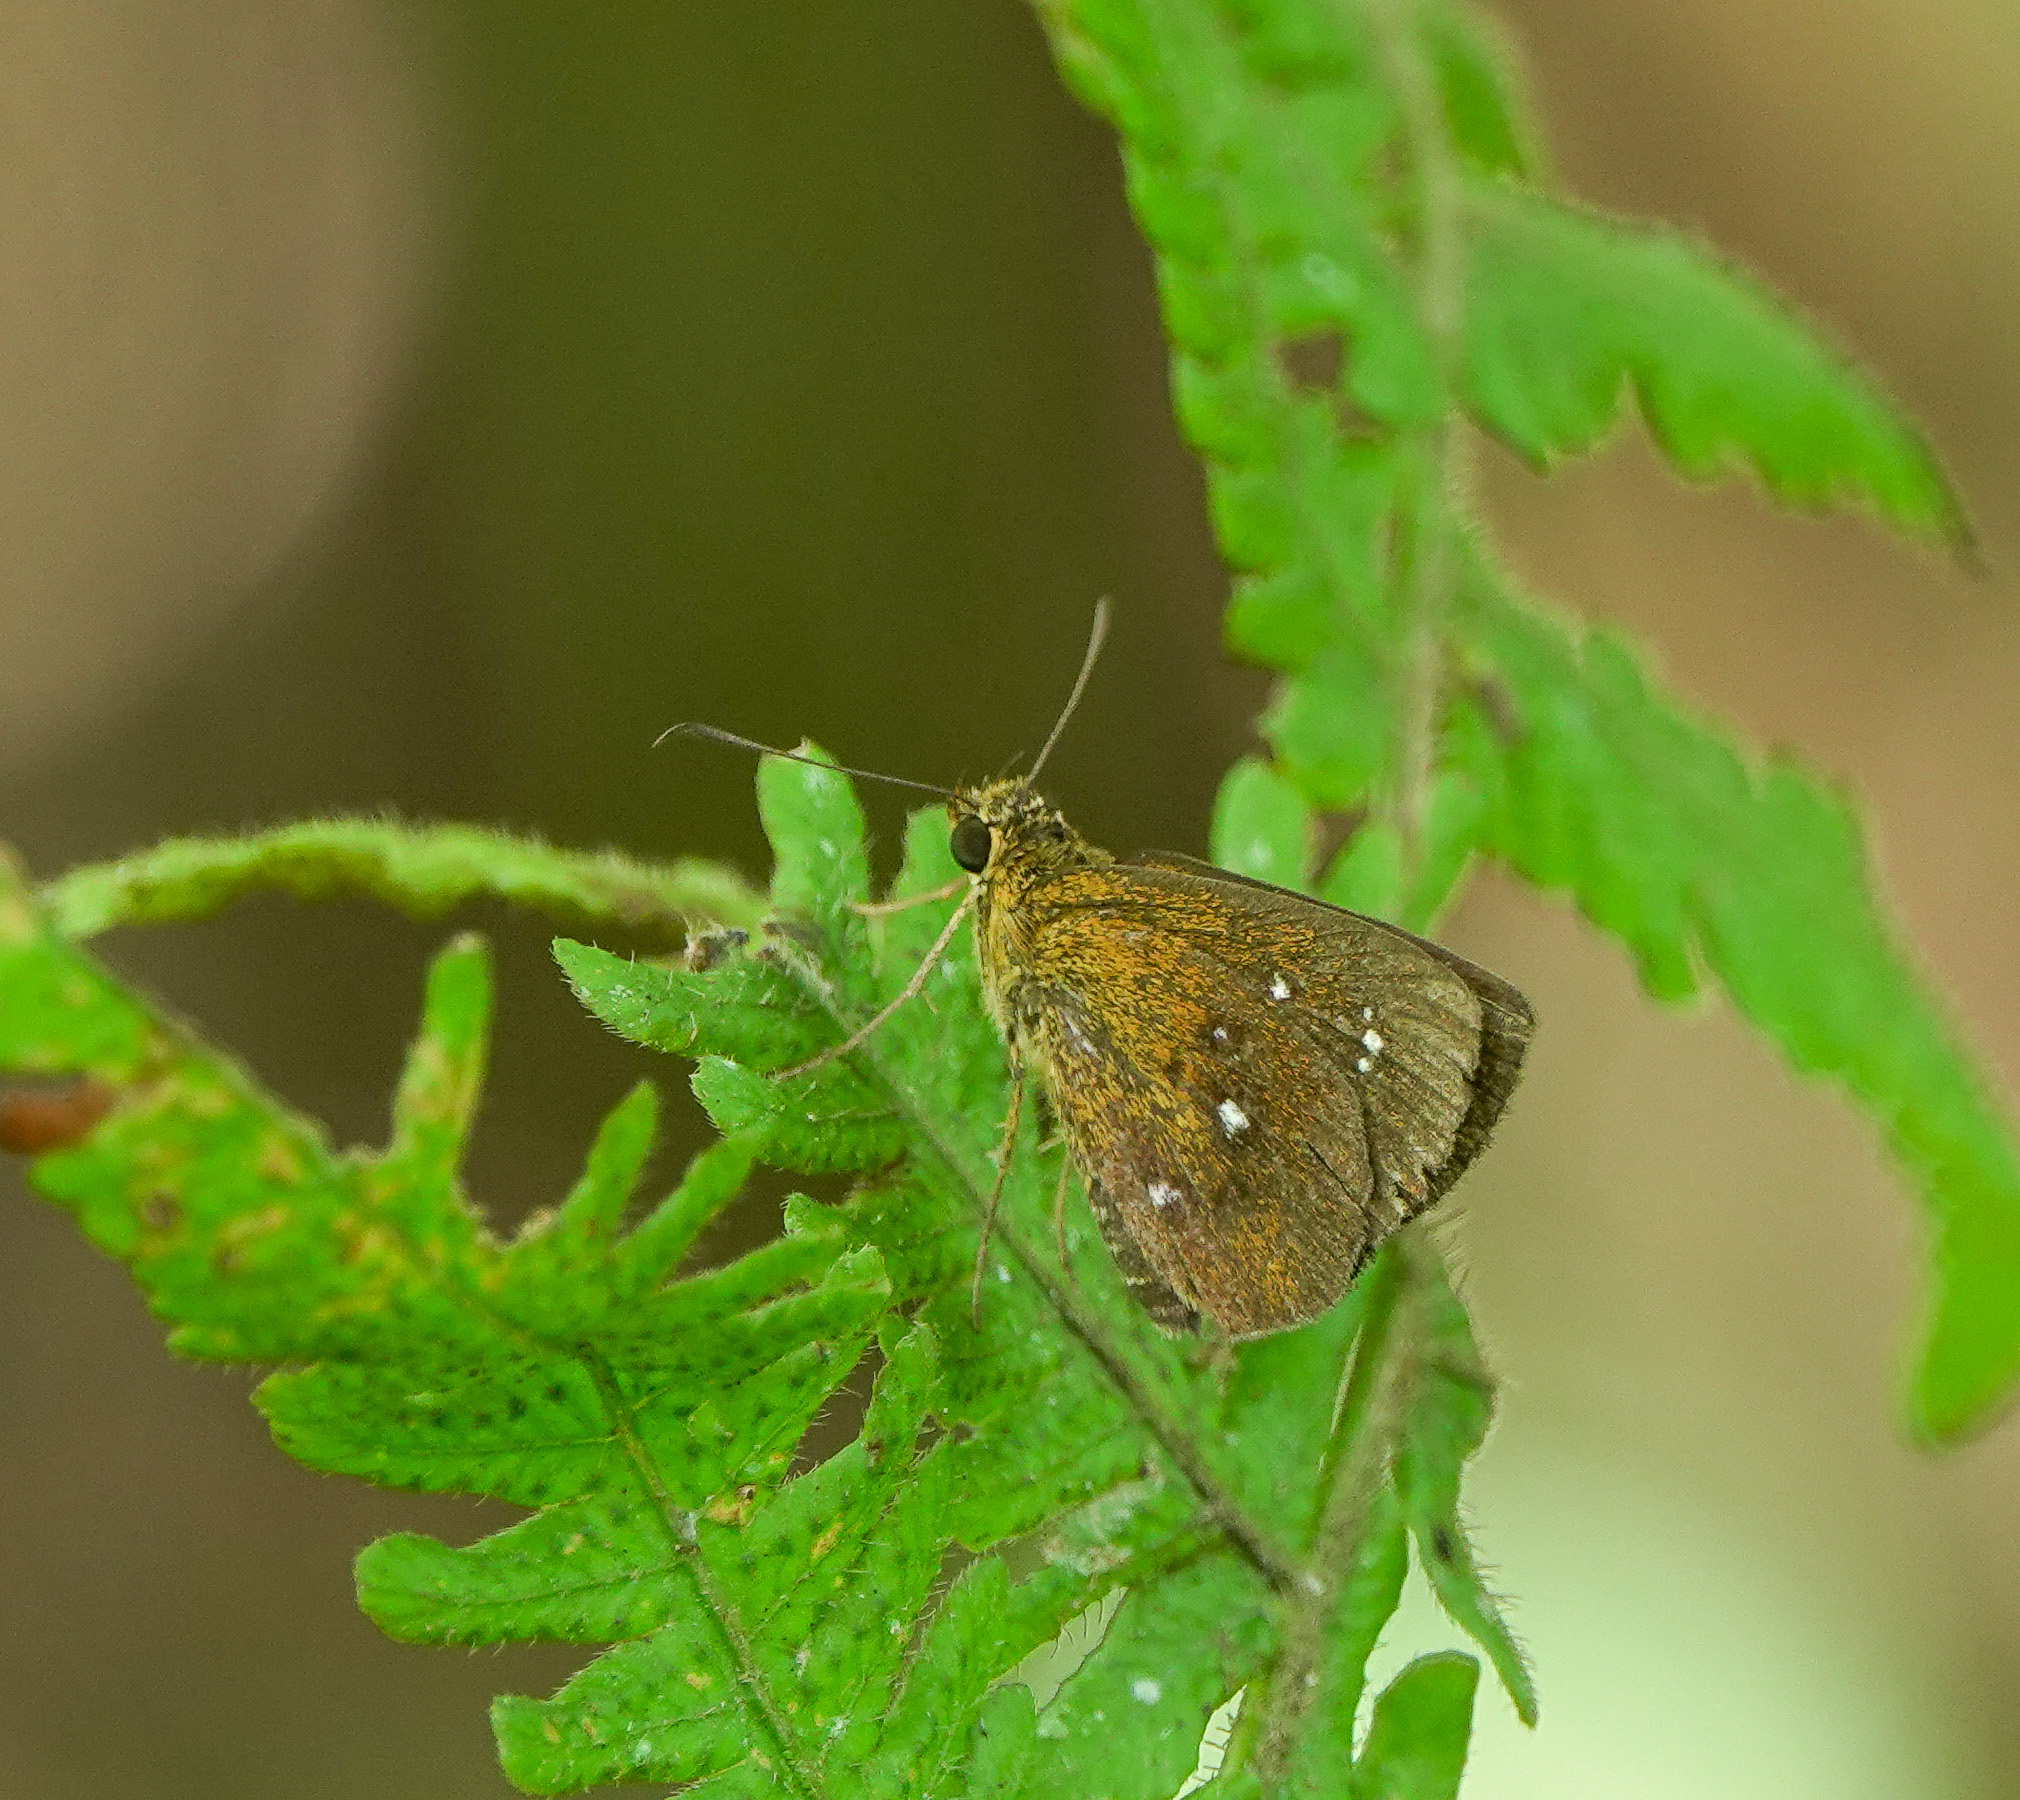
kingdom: Animalia
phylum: Arthropoda
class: Insecta
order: Lepidoptera
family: Hesperiidae
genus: Iambrix
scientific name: Iambrix salsala
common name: Chestnut bob
